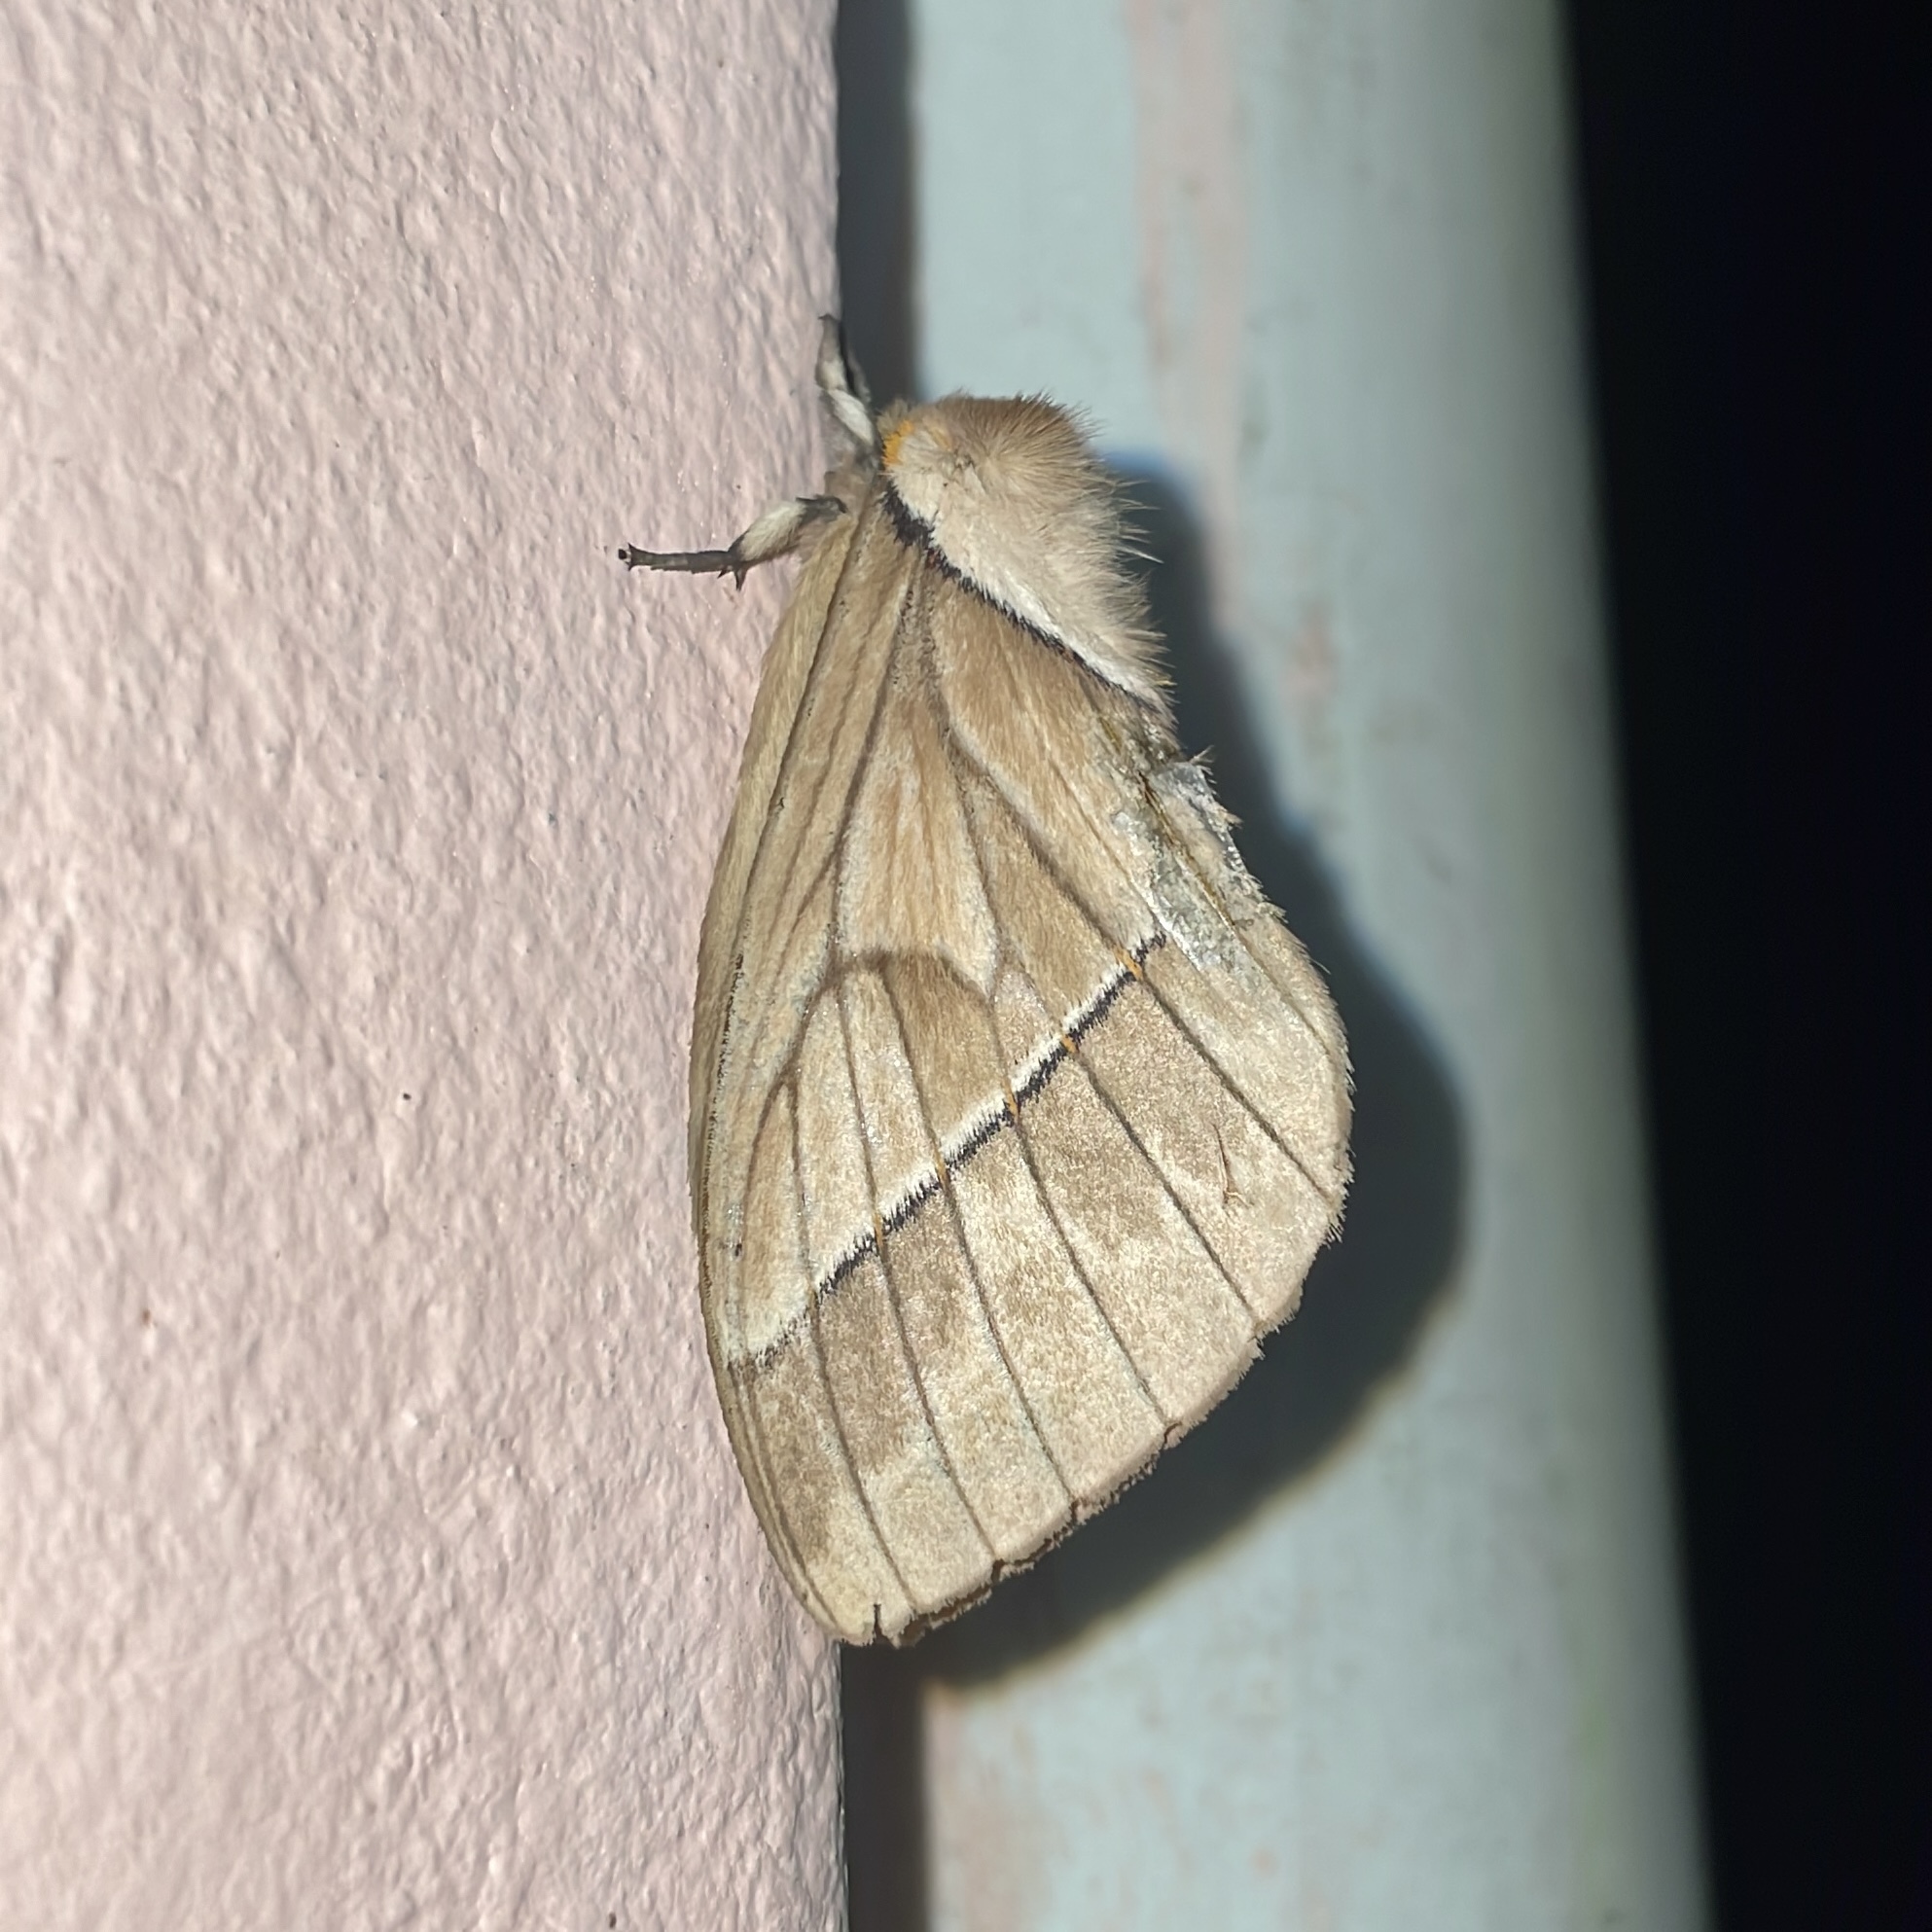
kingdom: Animalia
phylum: Arthropoda
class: Insecta
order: Lepidoptera
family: Saturniidae
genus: Pseudodirphia
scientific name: Pseudodirphia obliqua
